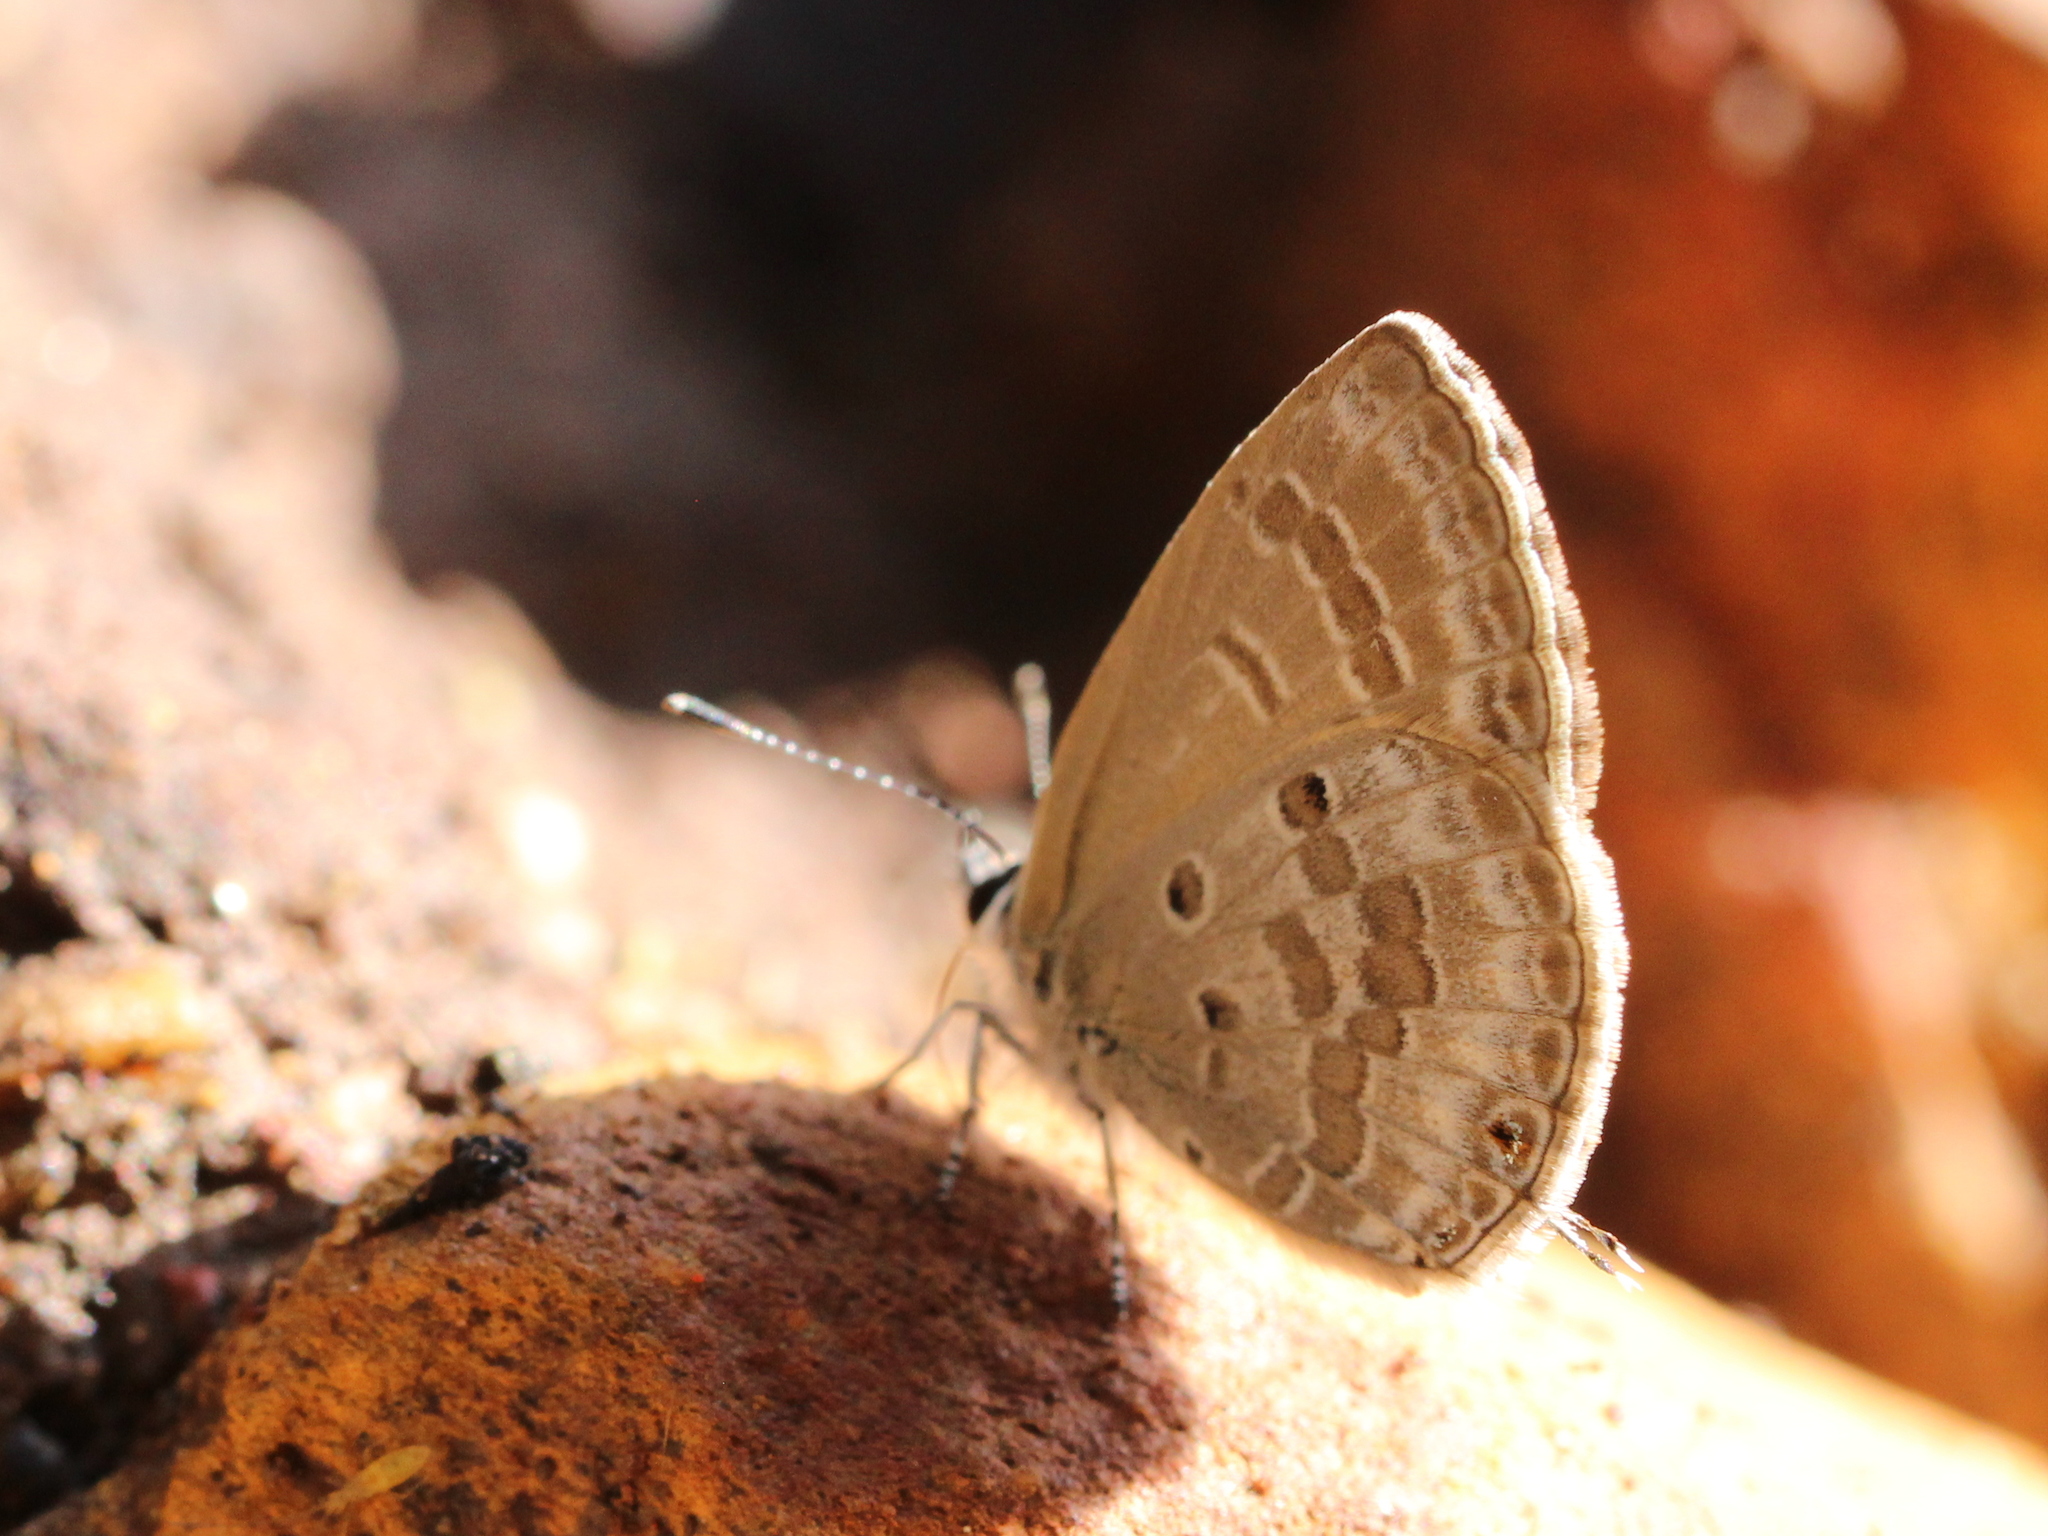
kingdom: Animalia
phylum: Arthropoda
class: Insecta
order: Lepidoptera
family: Lycaenidae
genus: Luthrodes
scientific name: Luthrodes pandava
